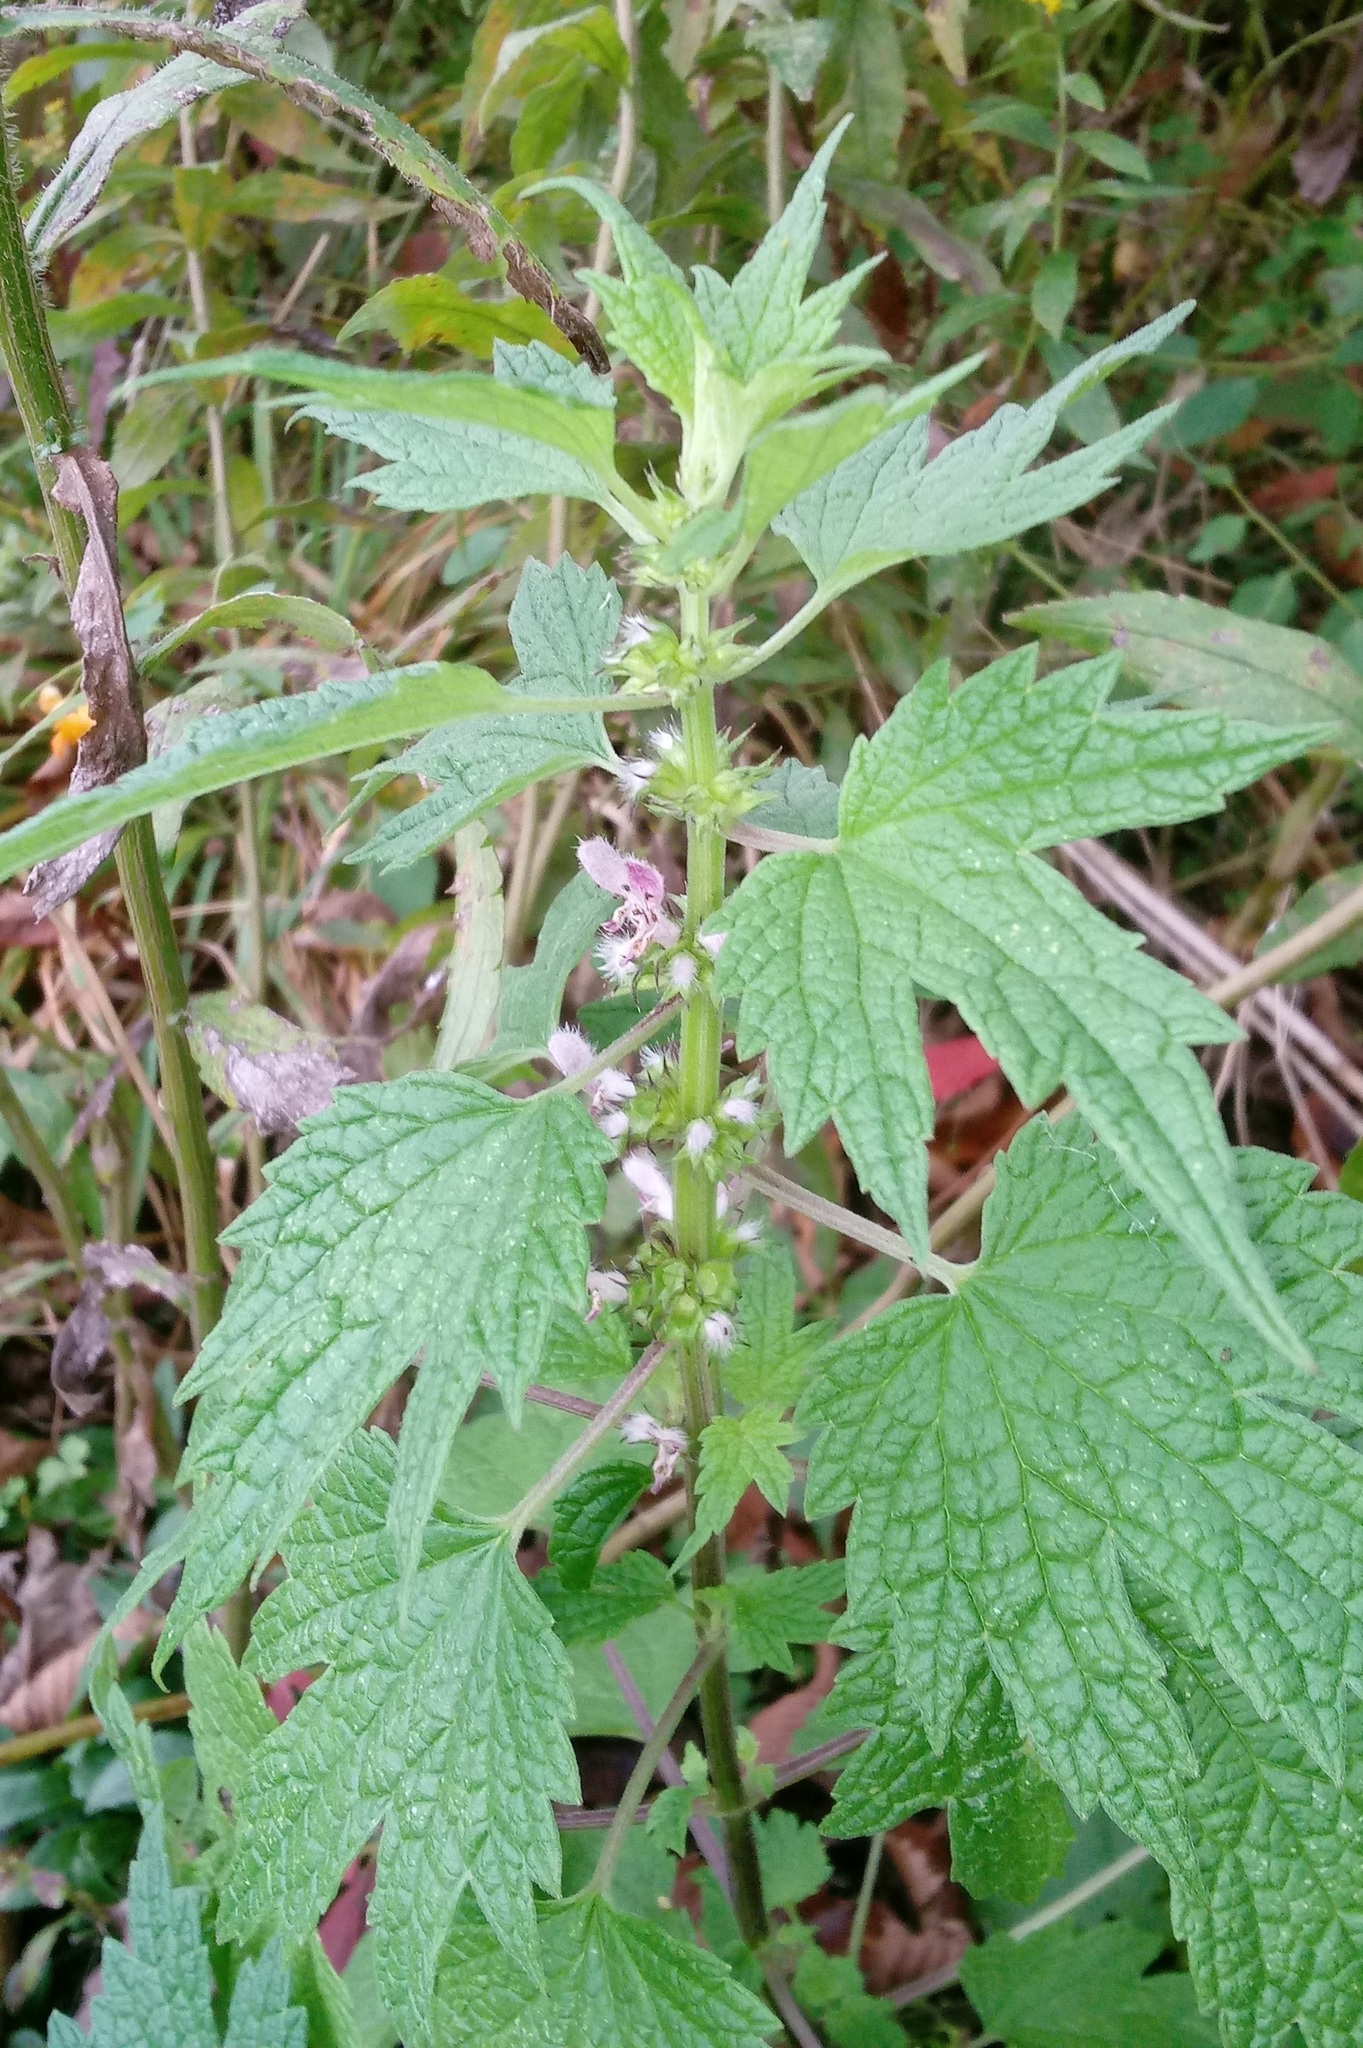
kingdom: Plantae
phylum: Tracheophyta
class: Magnoliopsida
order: Lamiales
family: Lamiaceae
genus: Leonurus
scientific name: Leonurus cardiaca
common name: Motherwort
